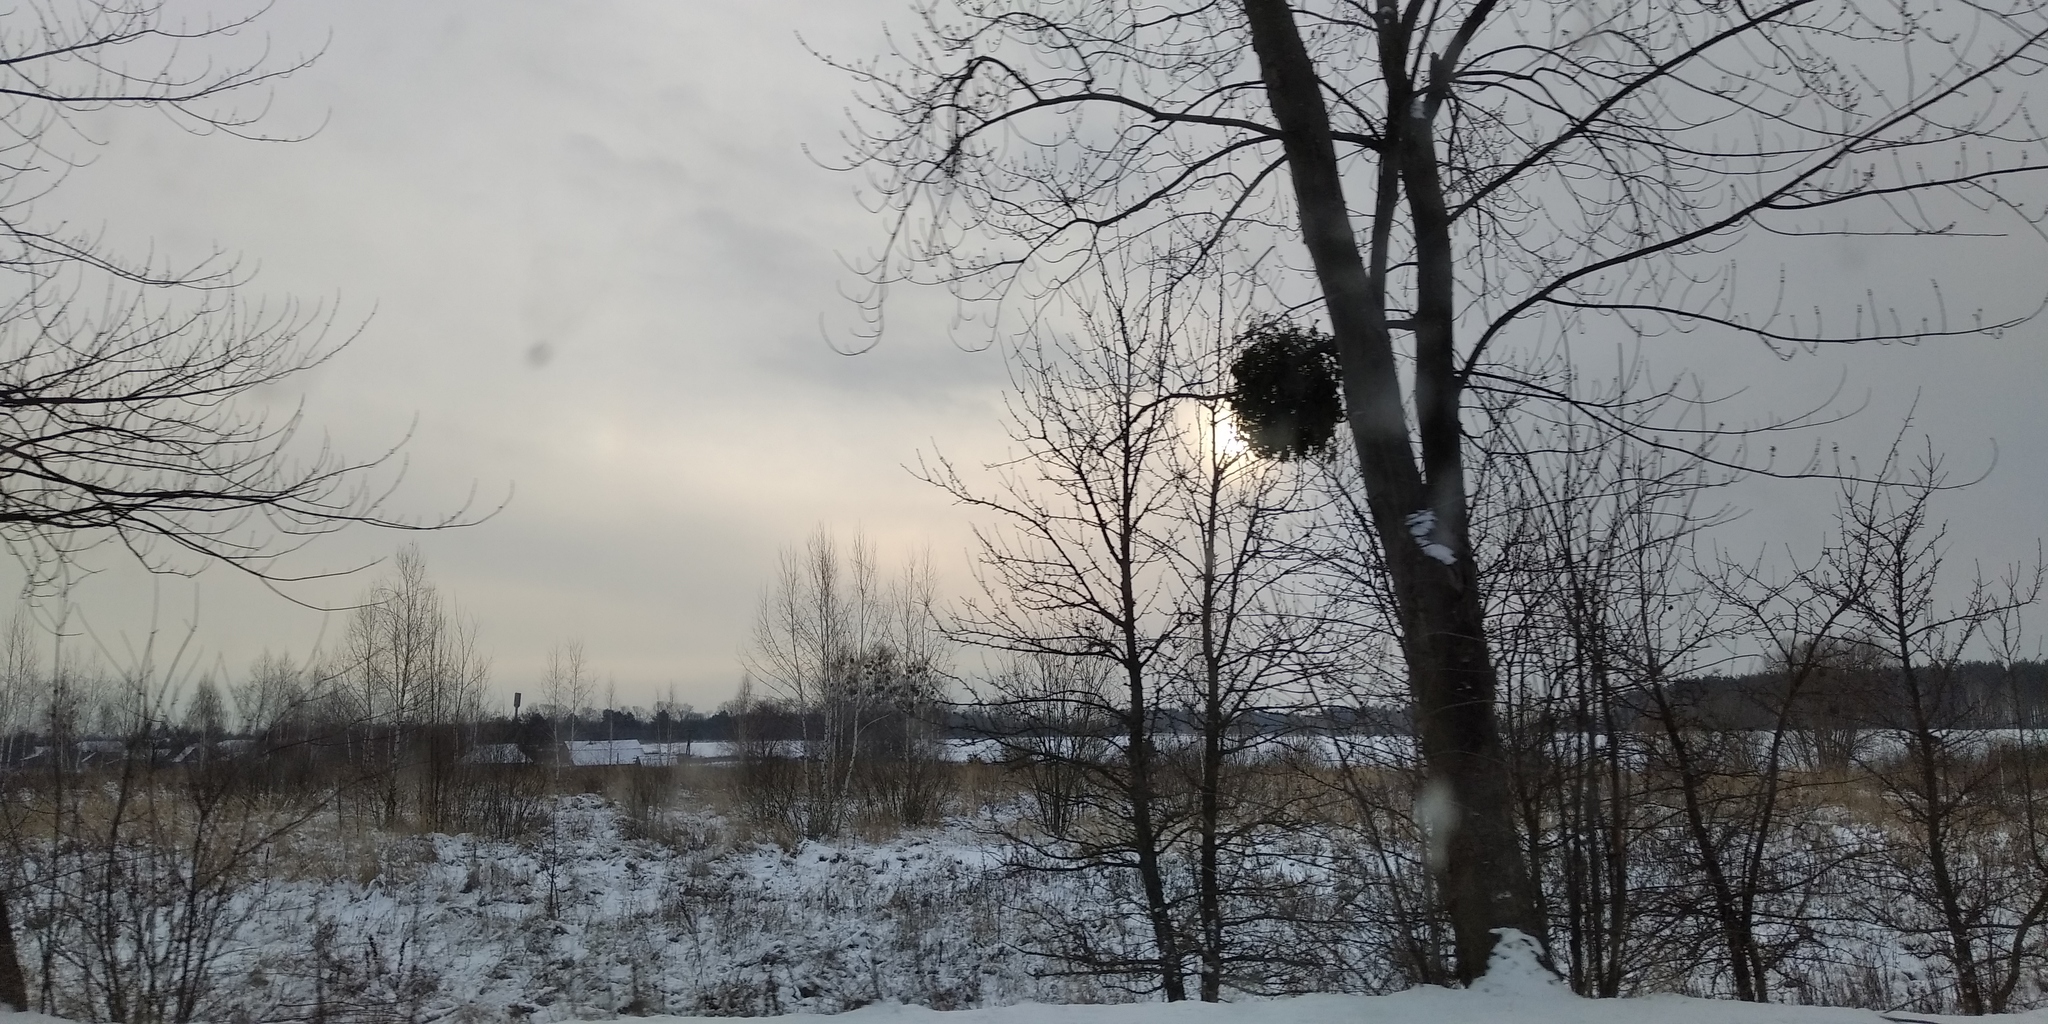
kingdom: Plantae
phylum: Tracheophyta
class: Magnoliopsida
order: Santalales
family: Viscaceae
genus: Viscum
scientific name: Viscum album
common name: Mistletoe
